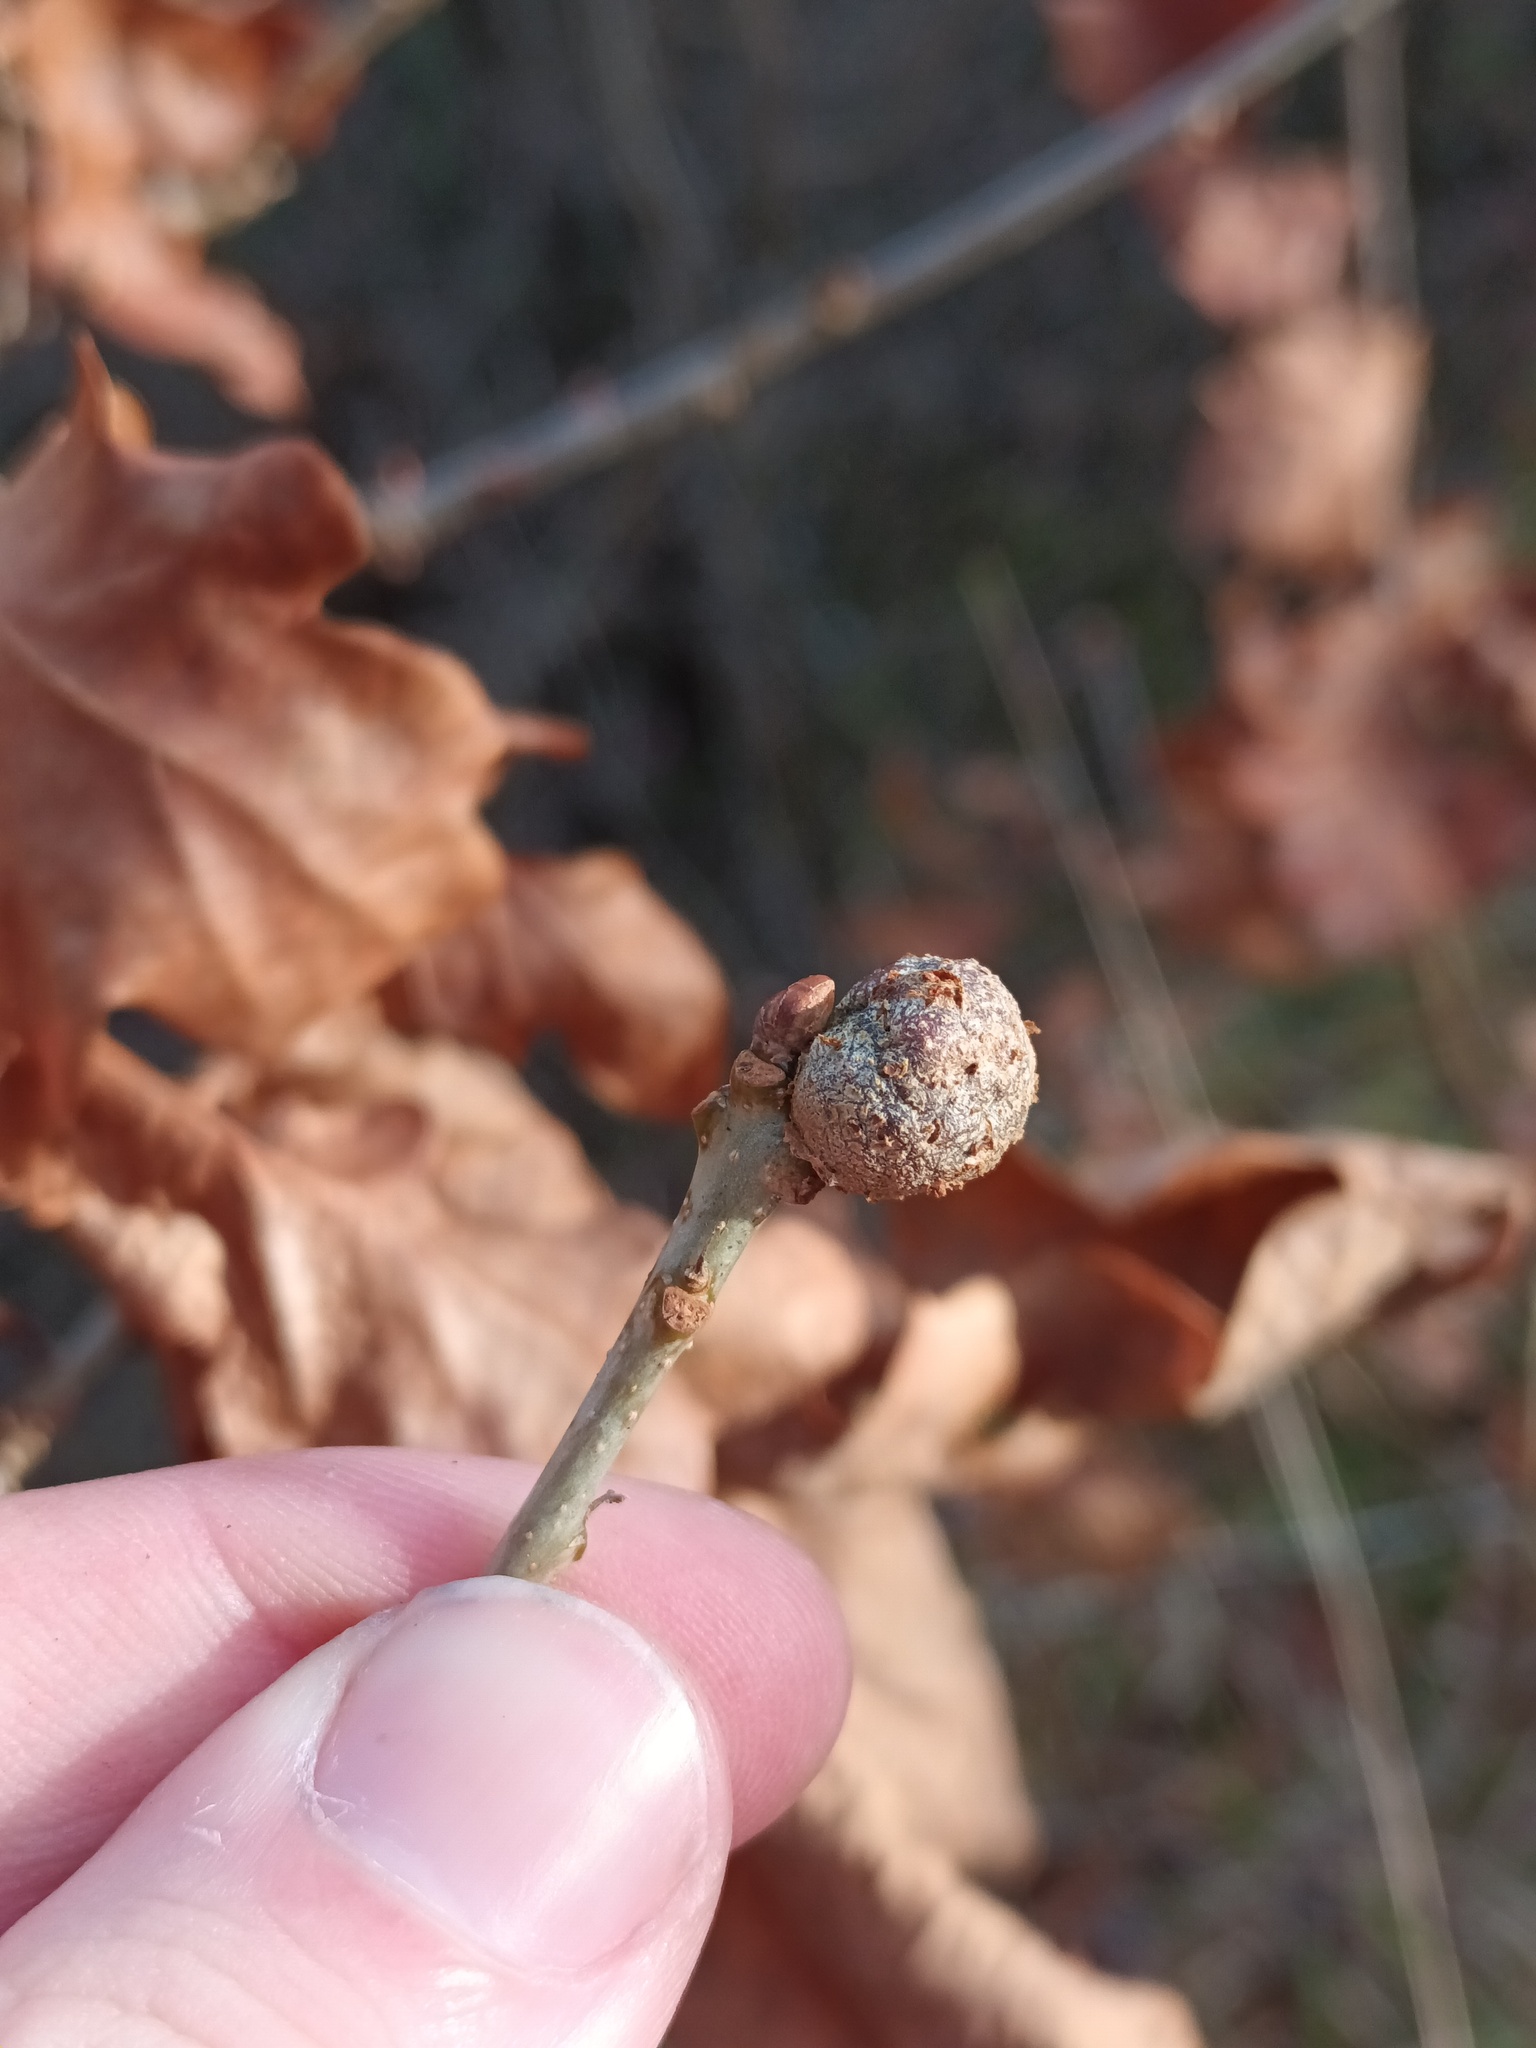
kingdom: Animalia
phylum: Arthropoda
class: Insecta
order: Hymenoptera
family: Cynipidae
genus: Andricus
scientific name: Andricus lignicolus
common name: Cola-nut gall
